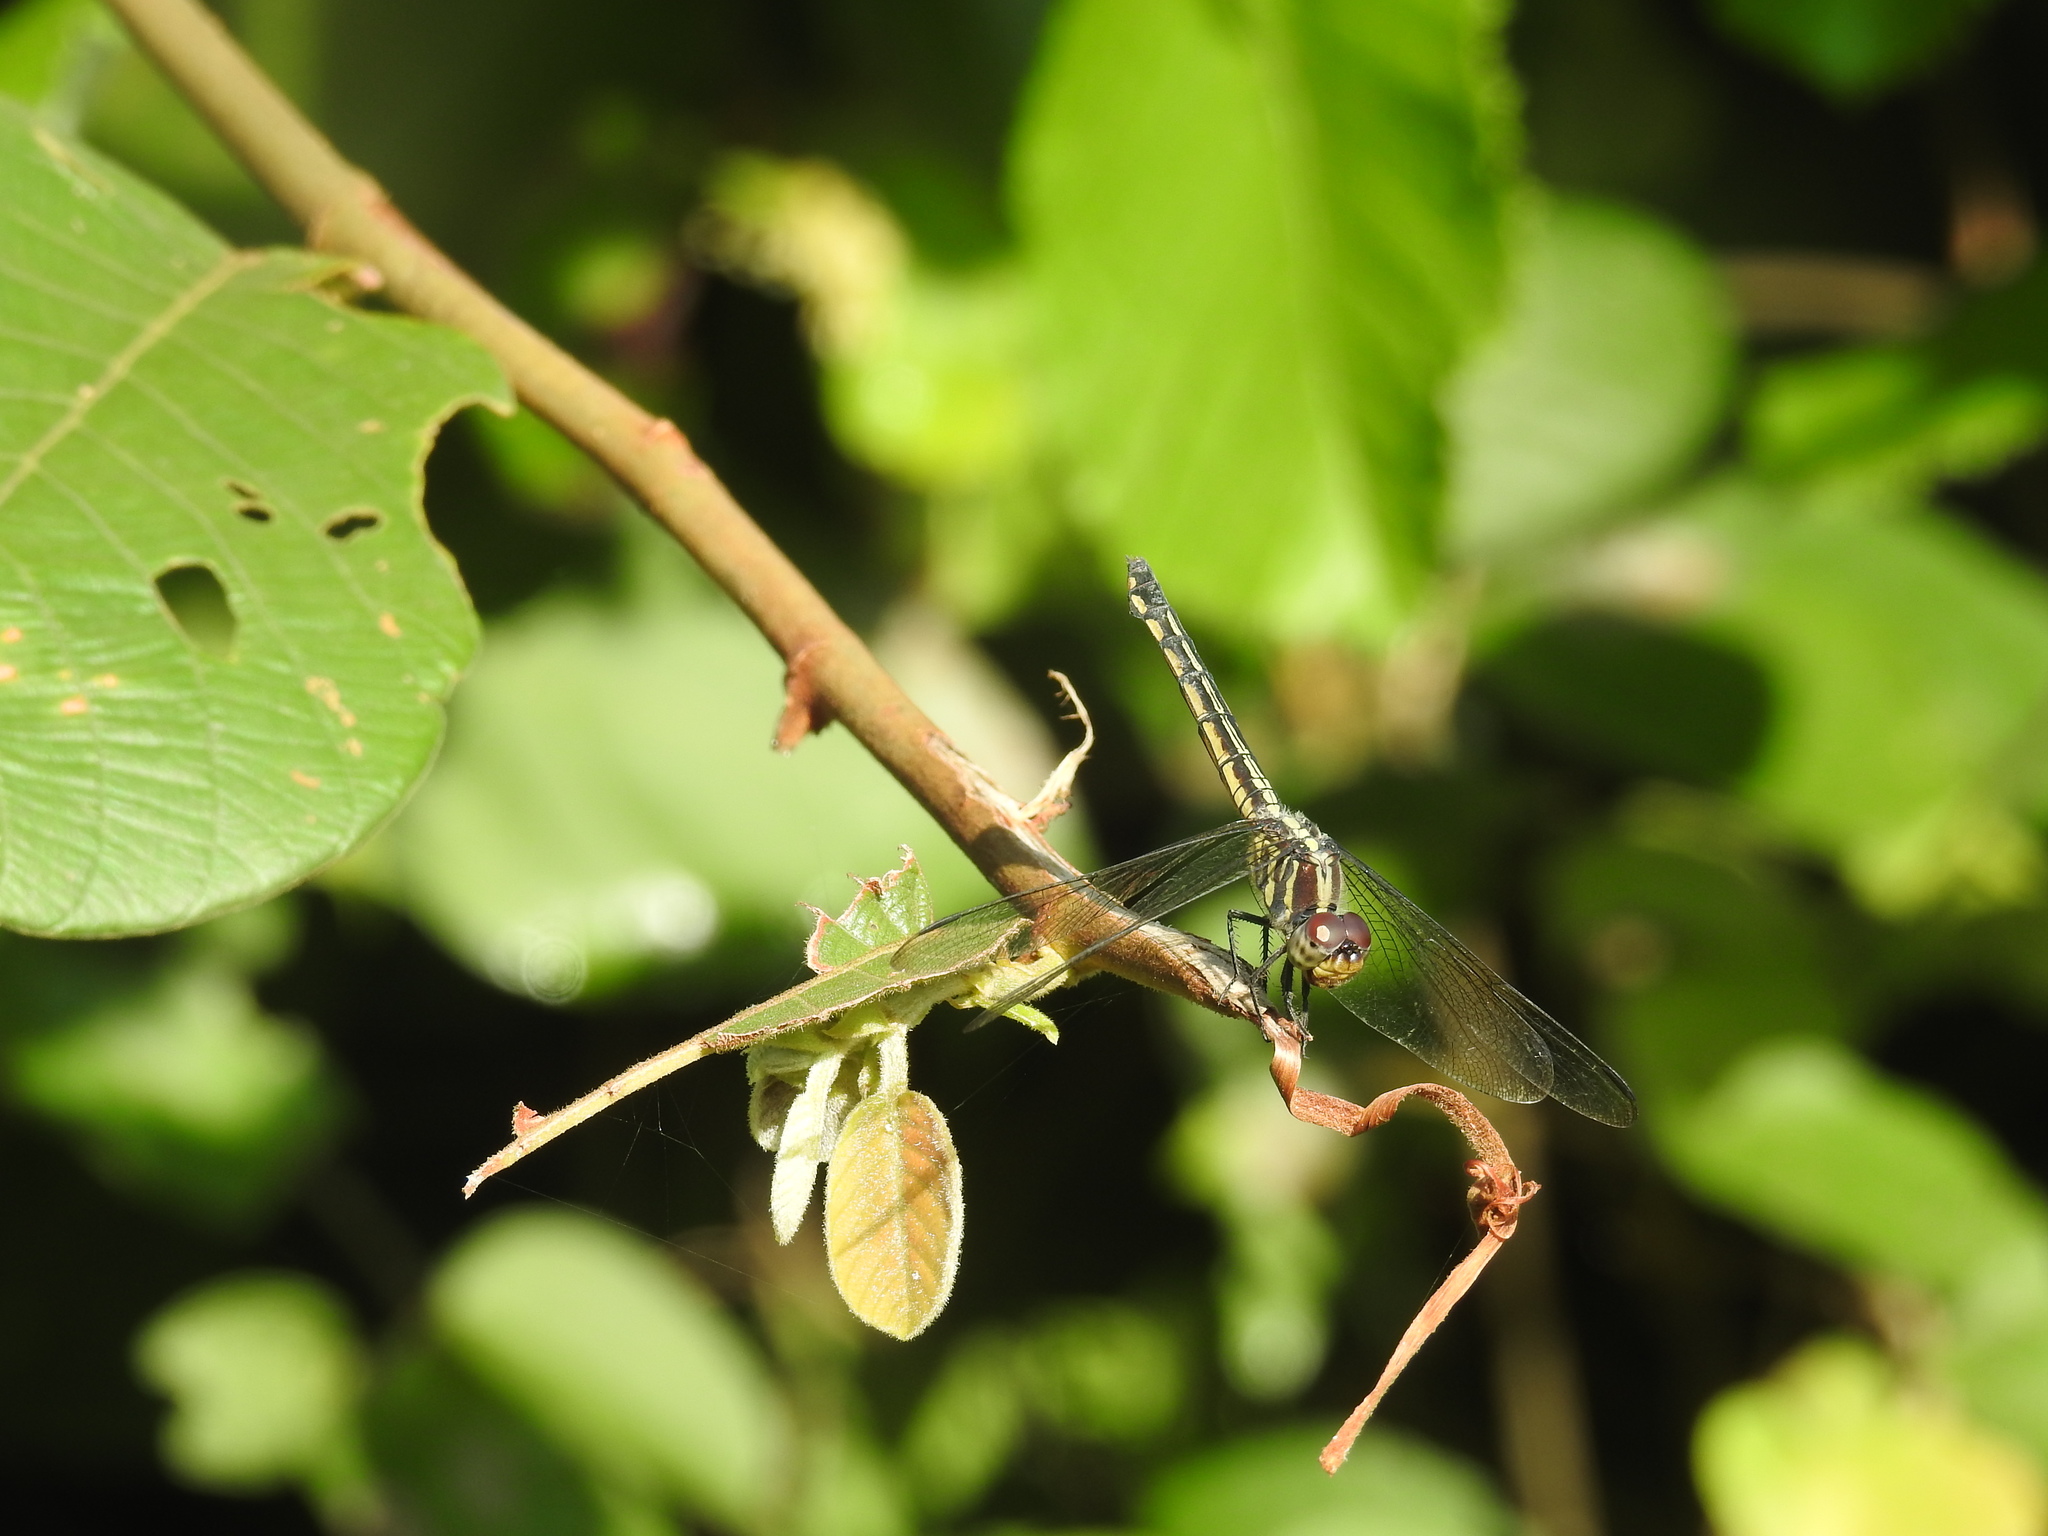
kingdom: Animalia
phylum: Arthropoda
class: Insecta
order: Odonata
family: Libellulidae
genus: Potamarcha
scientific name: Potamarcha congener
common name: Blue chaser
